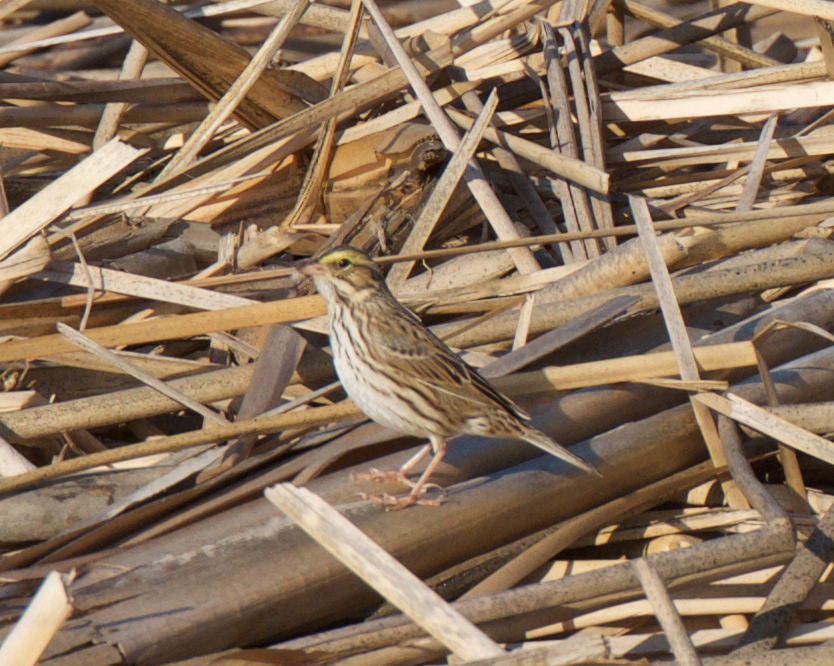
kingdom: Animalia
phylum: Chordata
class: Aves
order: Passeriformes
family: Passerellidae
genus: Passerculus
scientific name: Passerculus sandwichensis
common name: Savannah sparrow
